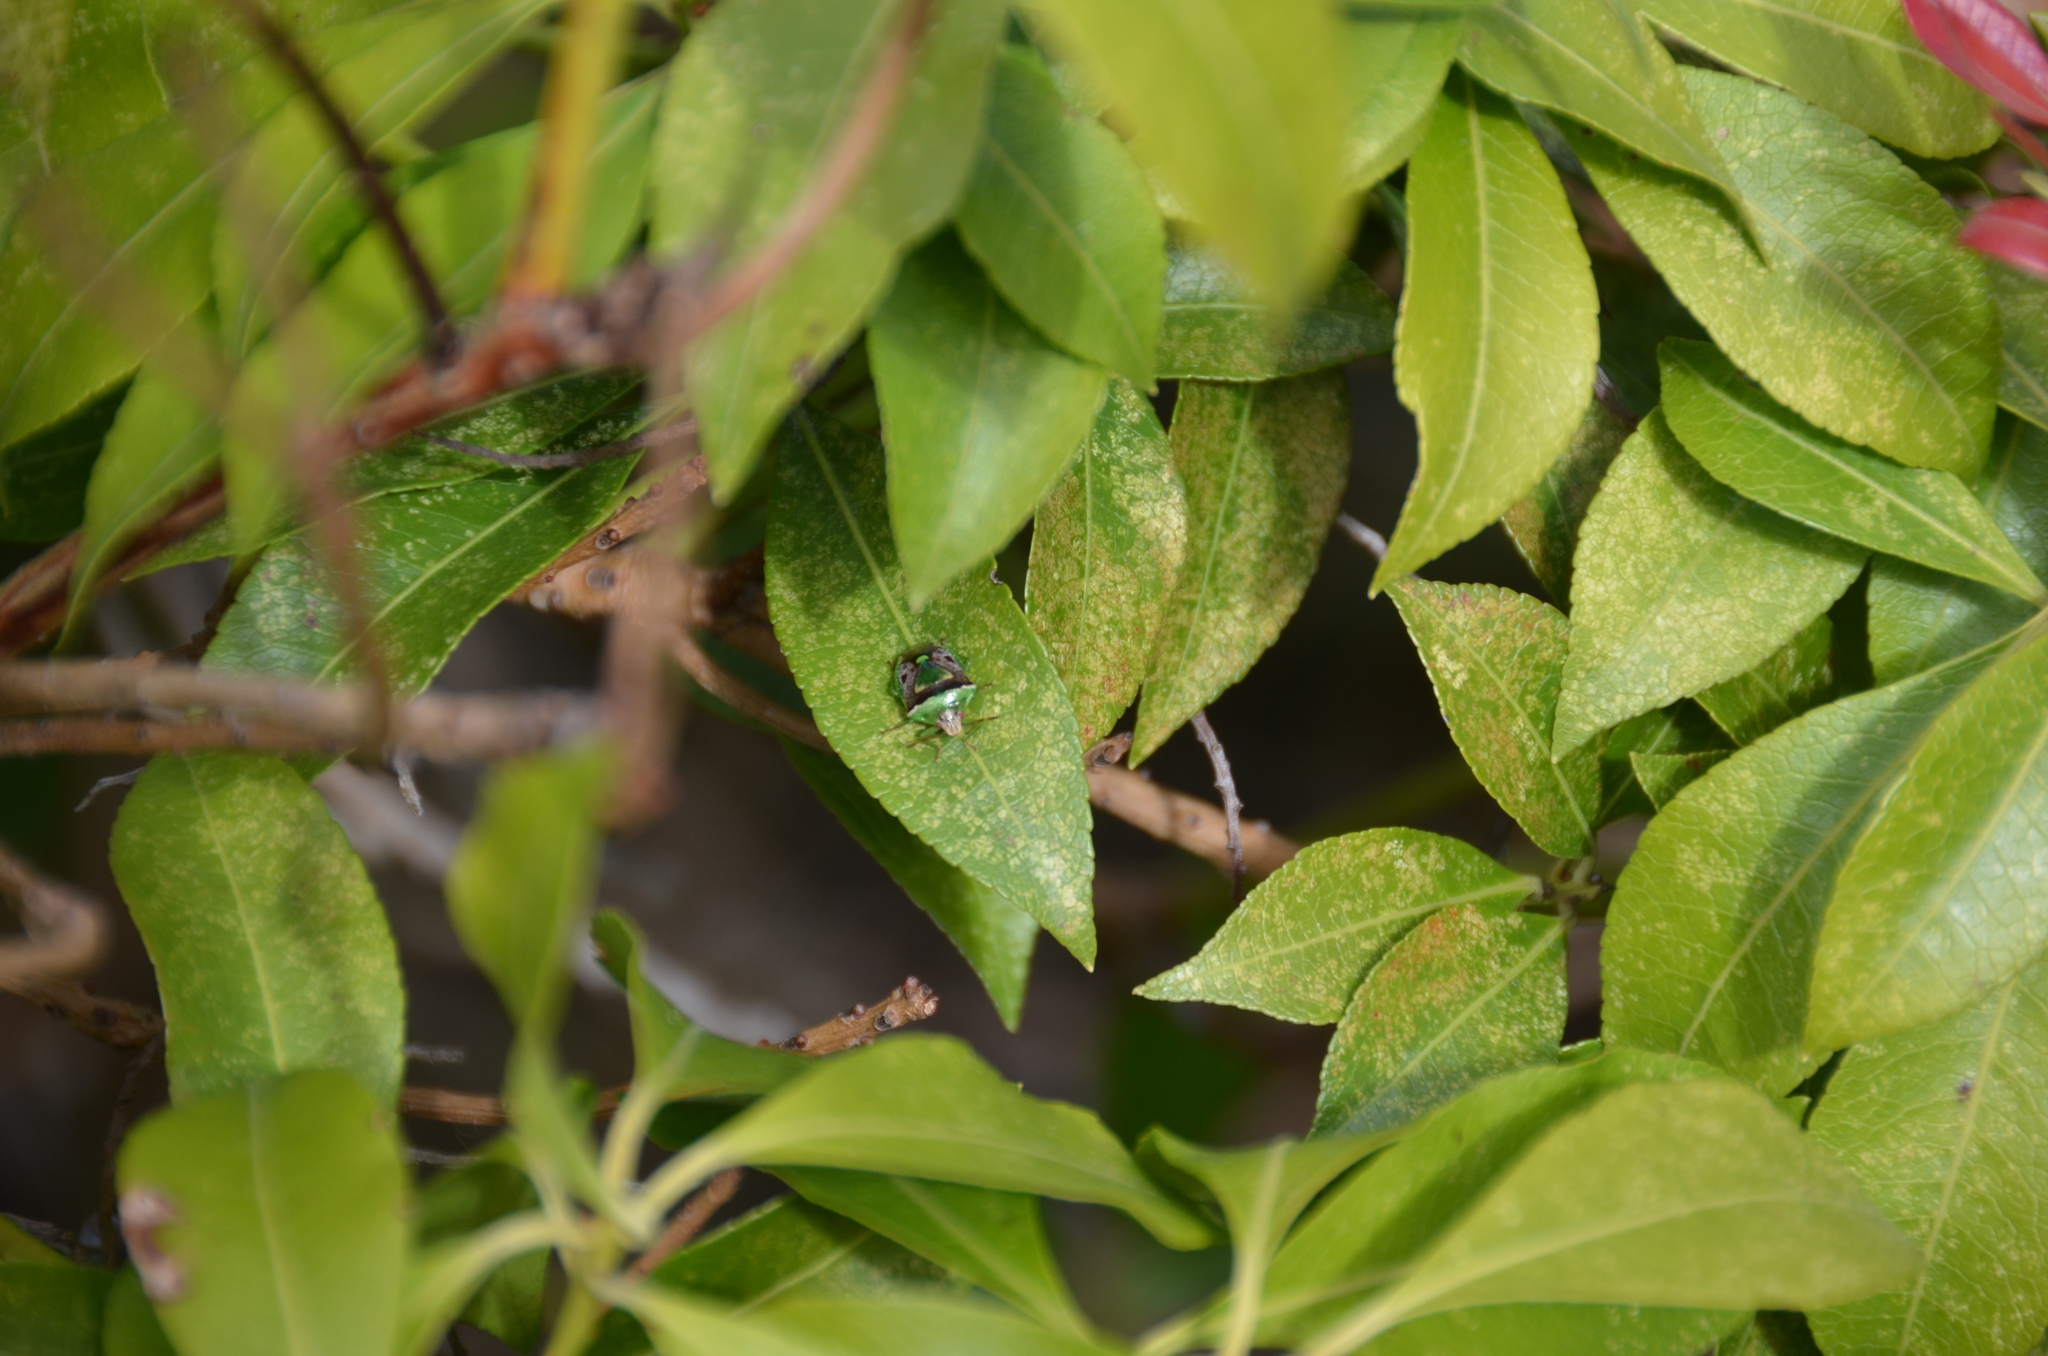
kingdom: Animalia
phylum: Arthropoda
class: Insecta
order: Hemiptera
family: Pentatomidae
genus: Banasa
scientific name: Banasa dimidiata
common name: Green burgundy stink bug
